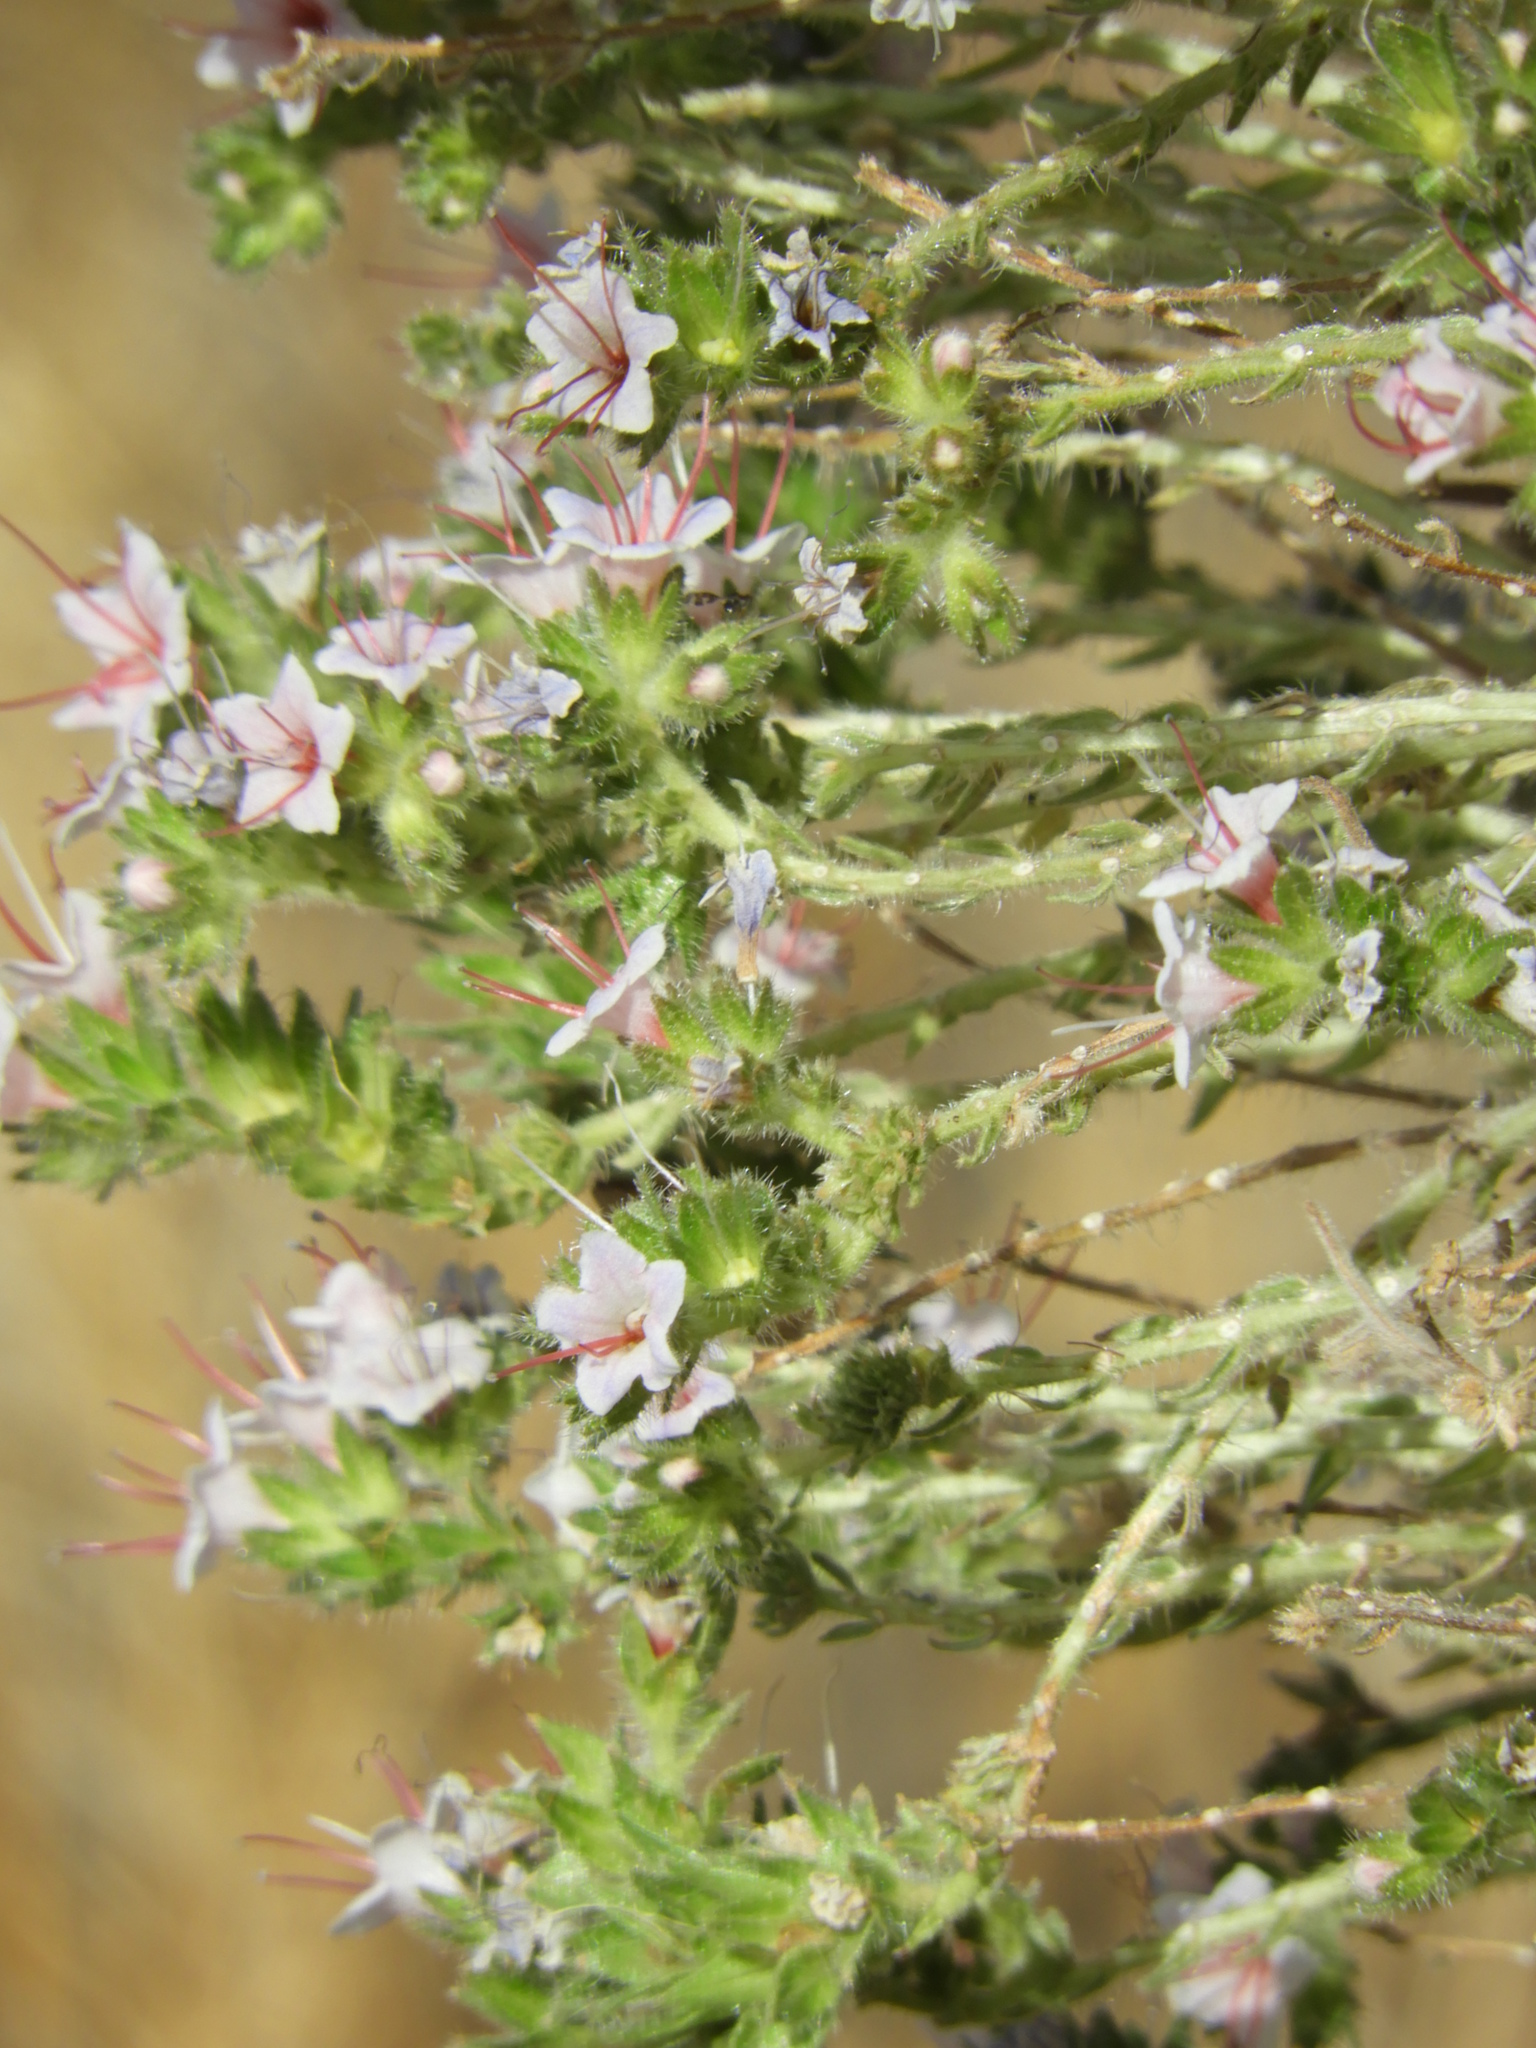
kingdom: Plantae
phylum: Tracheophyta
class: Magnoliopsida
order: Boraginales
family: Boraginaceae
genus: Echium
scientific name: Echium perezii
